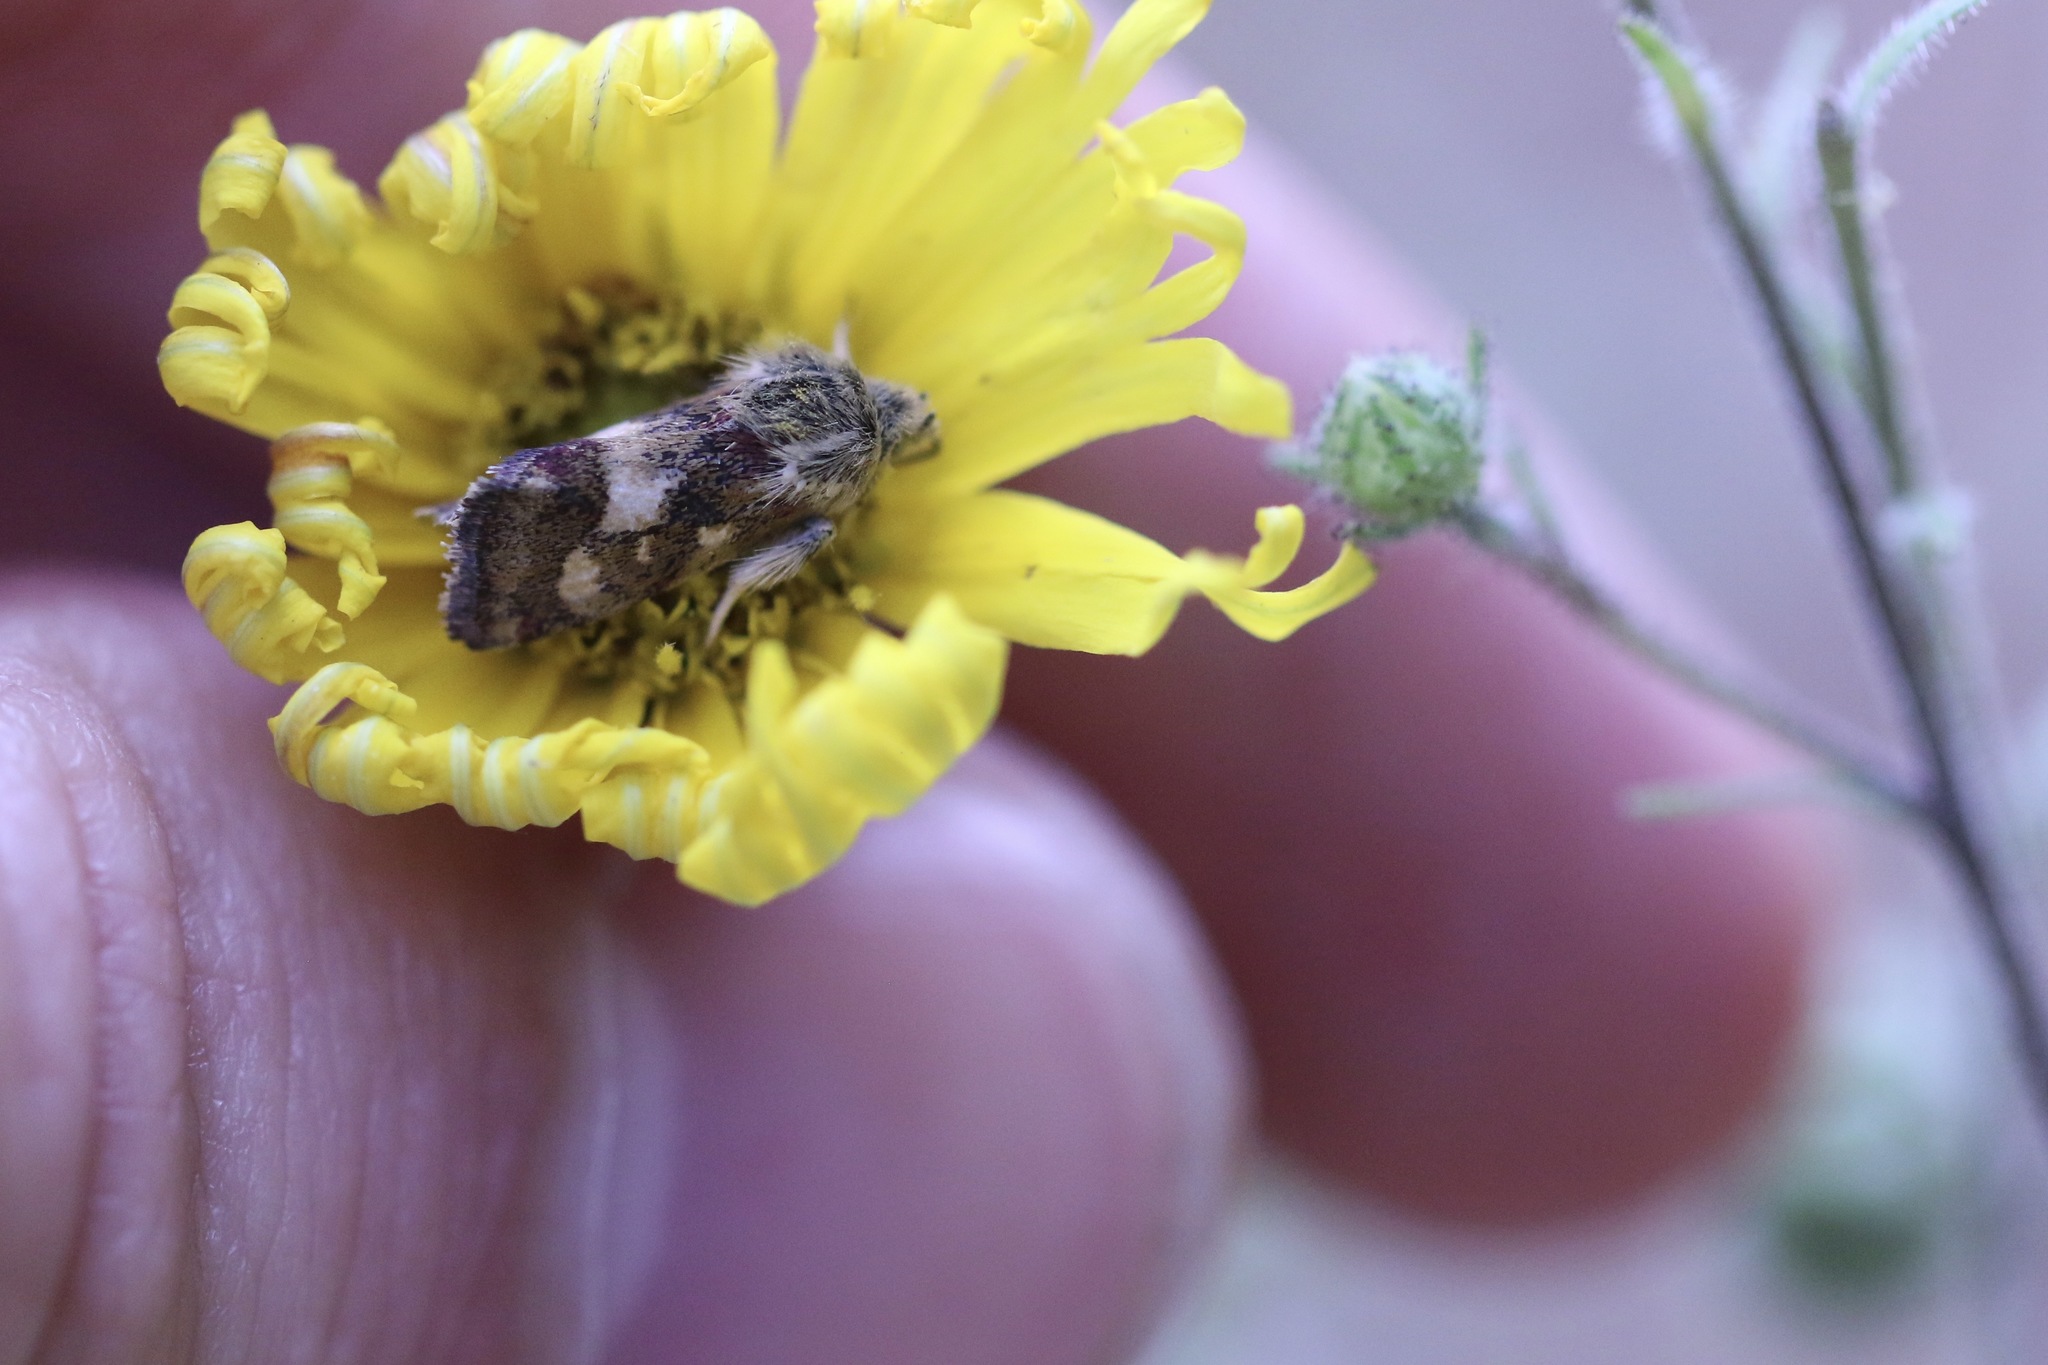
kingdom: Animalia
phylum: Arthropoda
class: Insecta
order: Lepidoptera
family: Noctuidae
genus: Heliothodes
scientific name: Heliothodes diminutiva
